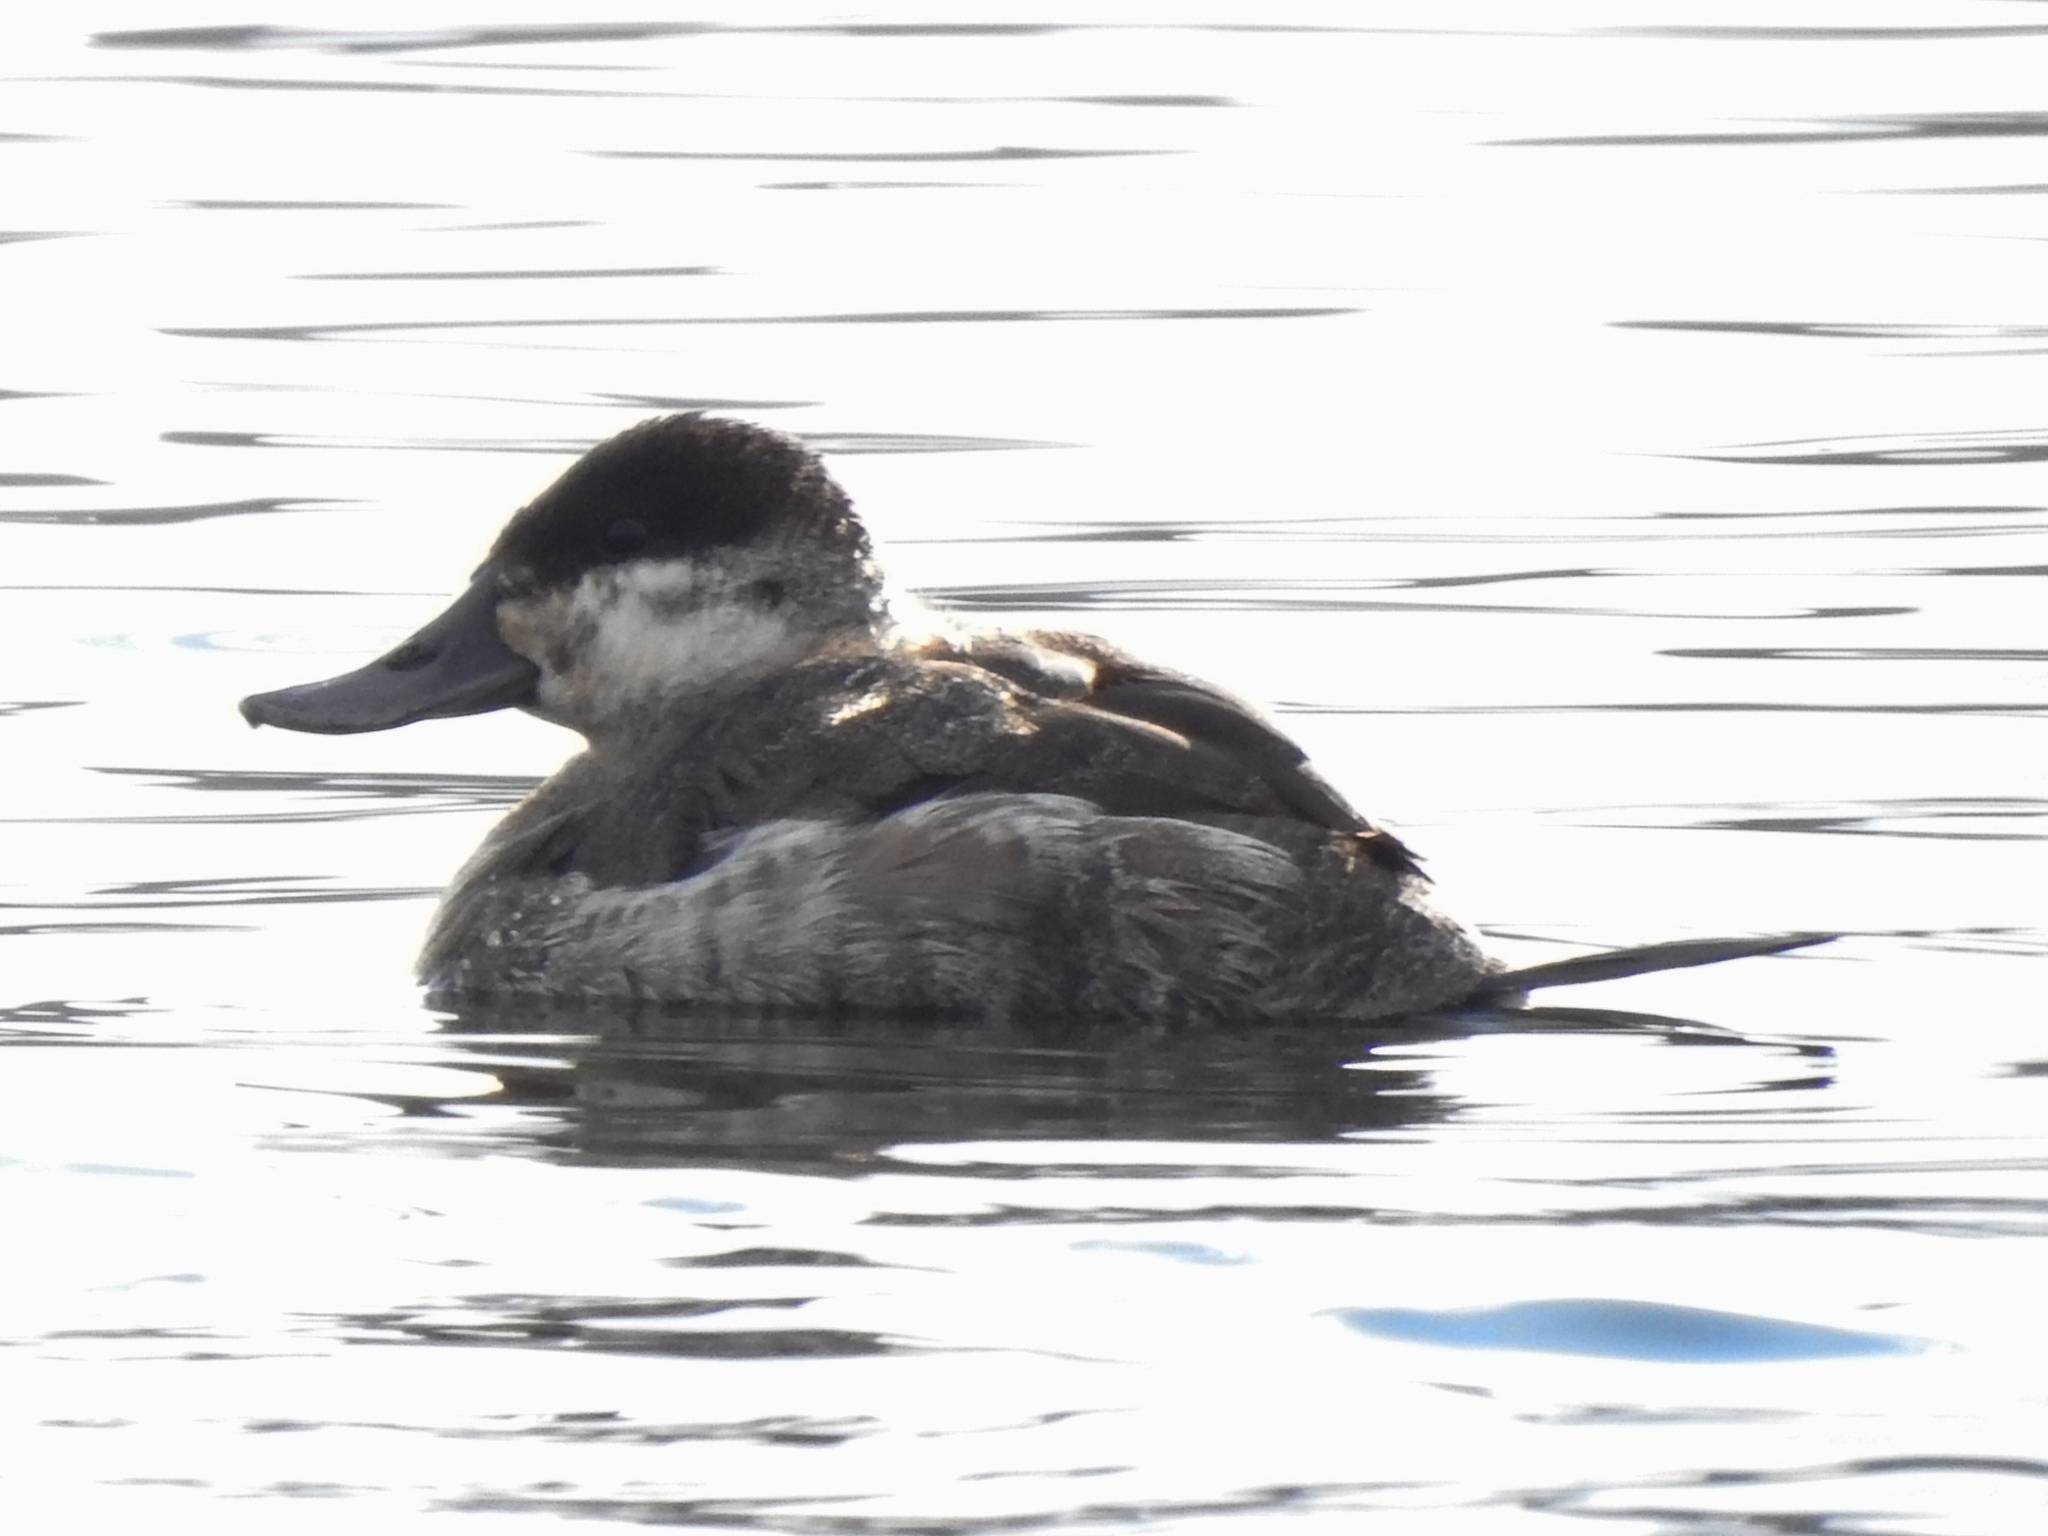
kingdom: Animalia
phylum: Chordata
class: Aves
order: Anseriformes
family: Anatidae
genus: Oxyura
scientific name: Oxyura jamaicensis
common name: Ruddy duck
